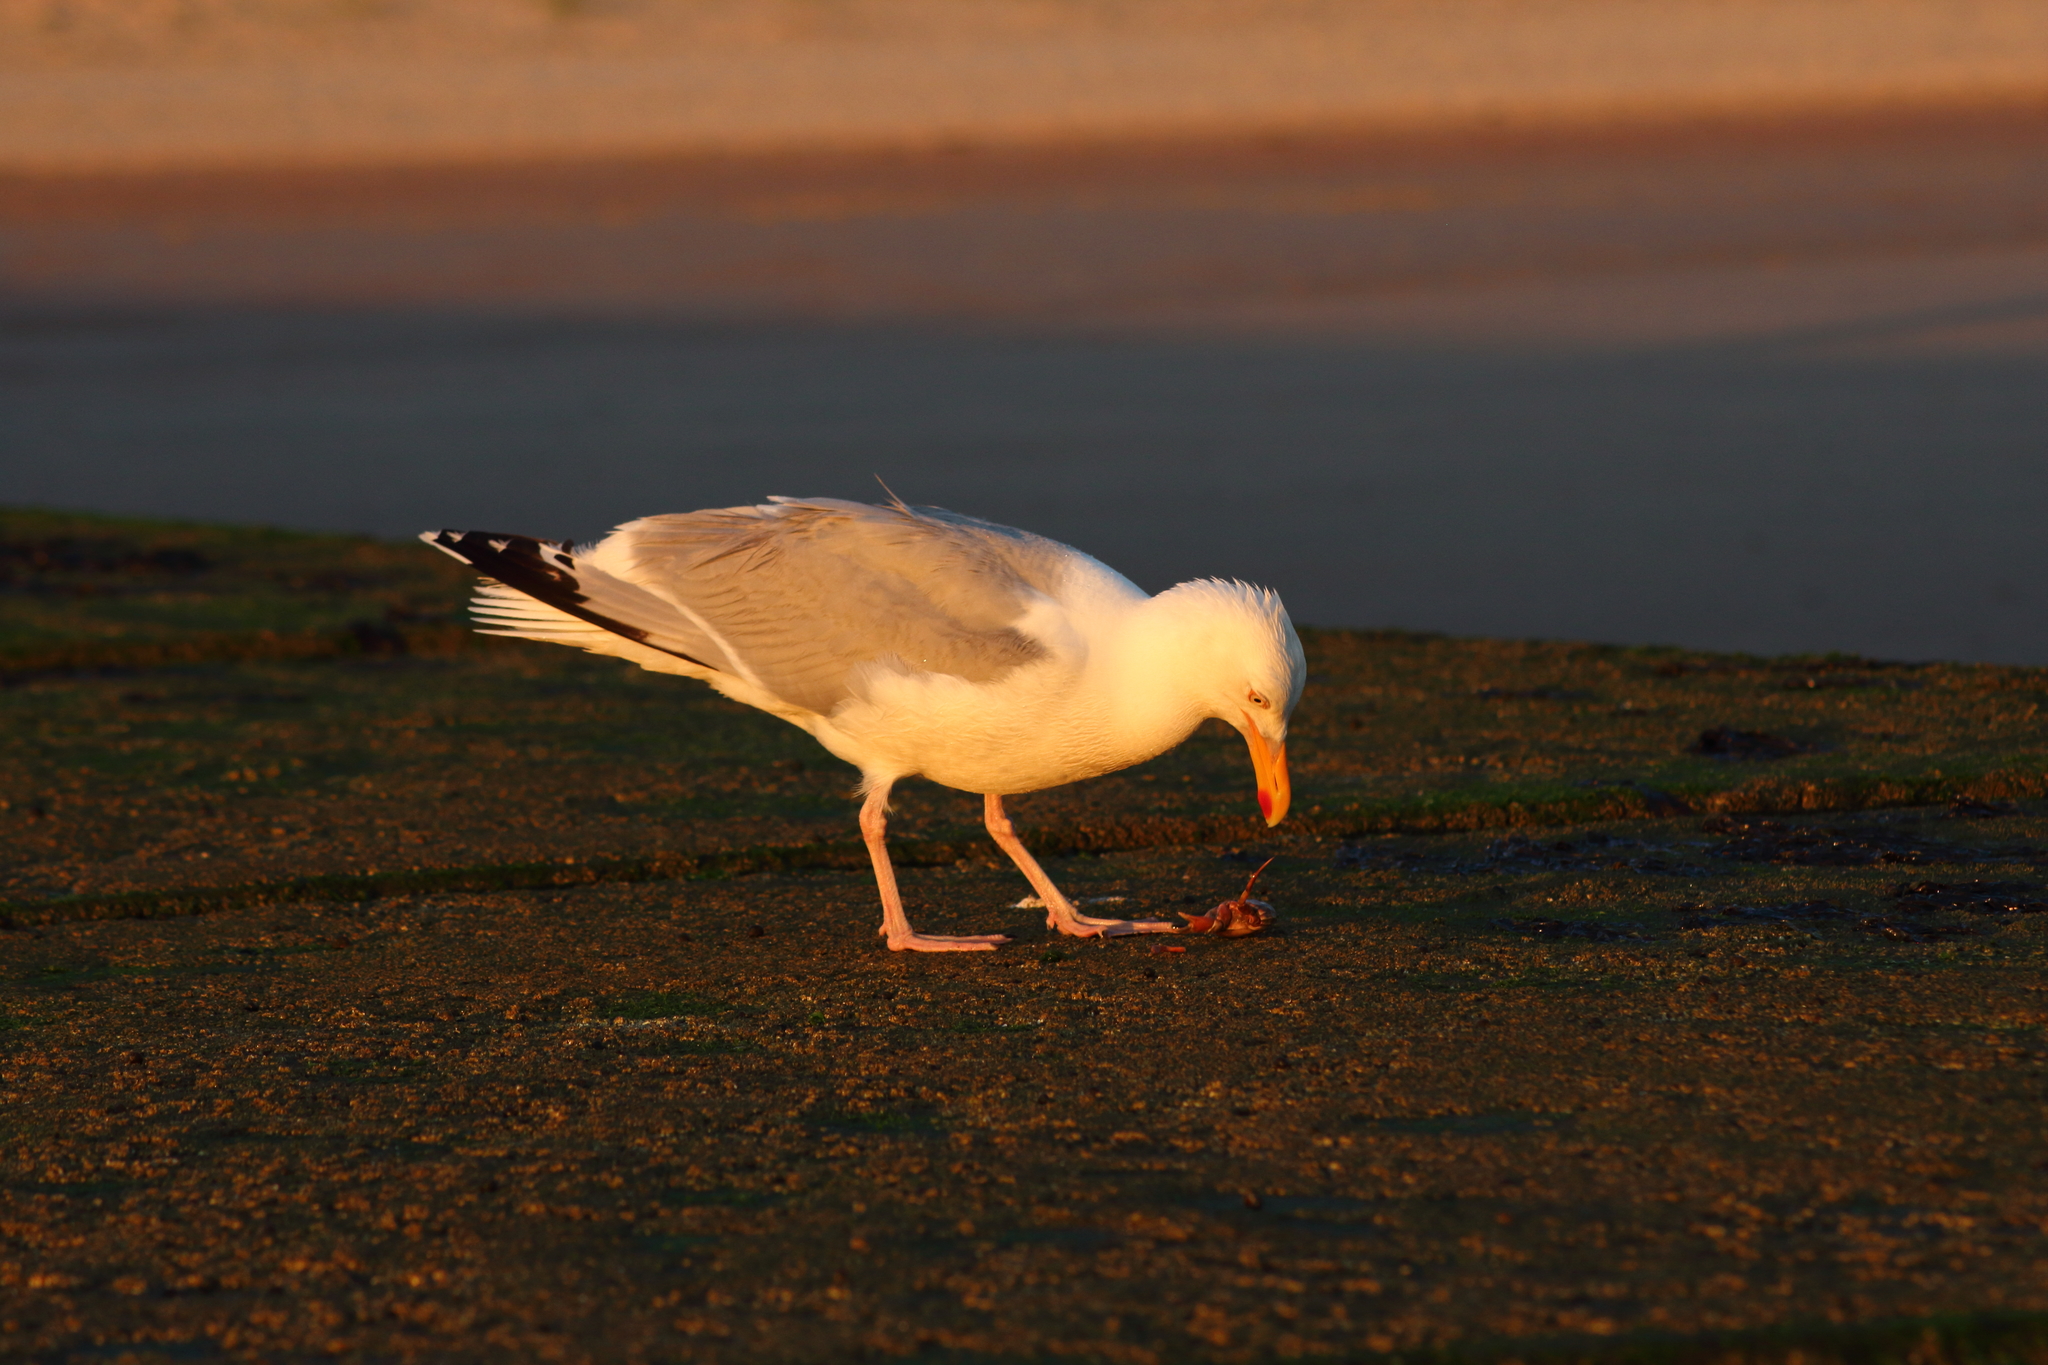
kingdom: Animalia
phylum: Chordata
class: Aves
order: Charadriiformes
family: Laridae
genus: Larus
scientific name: Larus argentatus
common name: Herring gull
